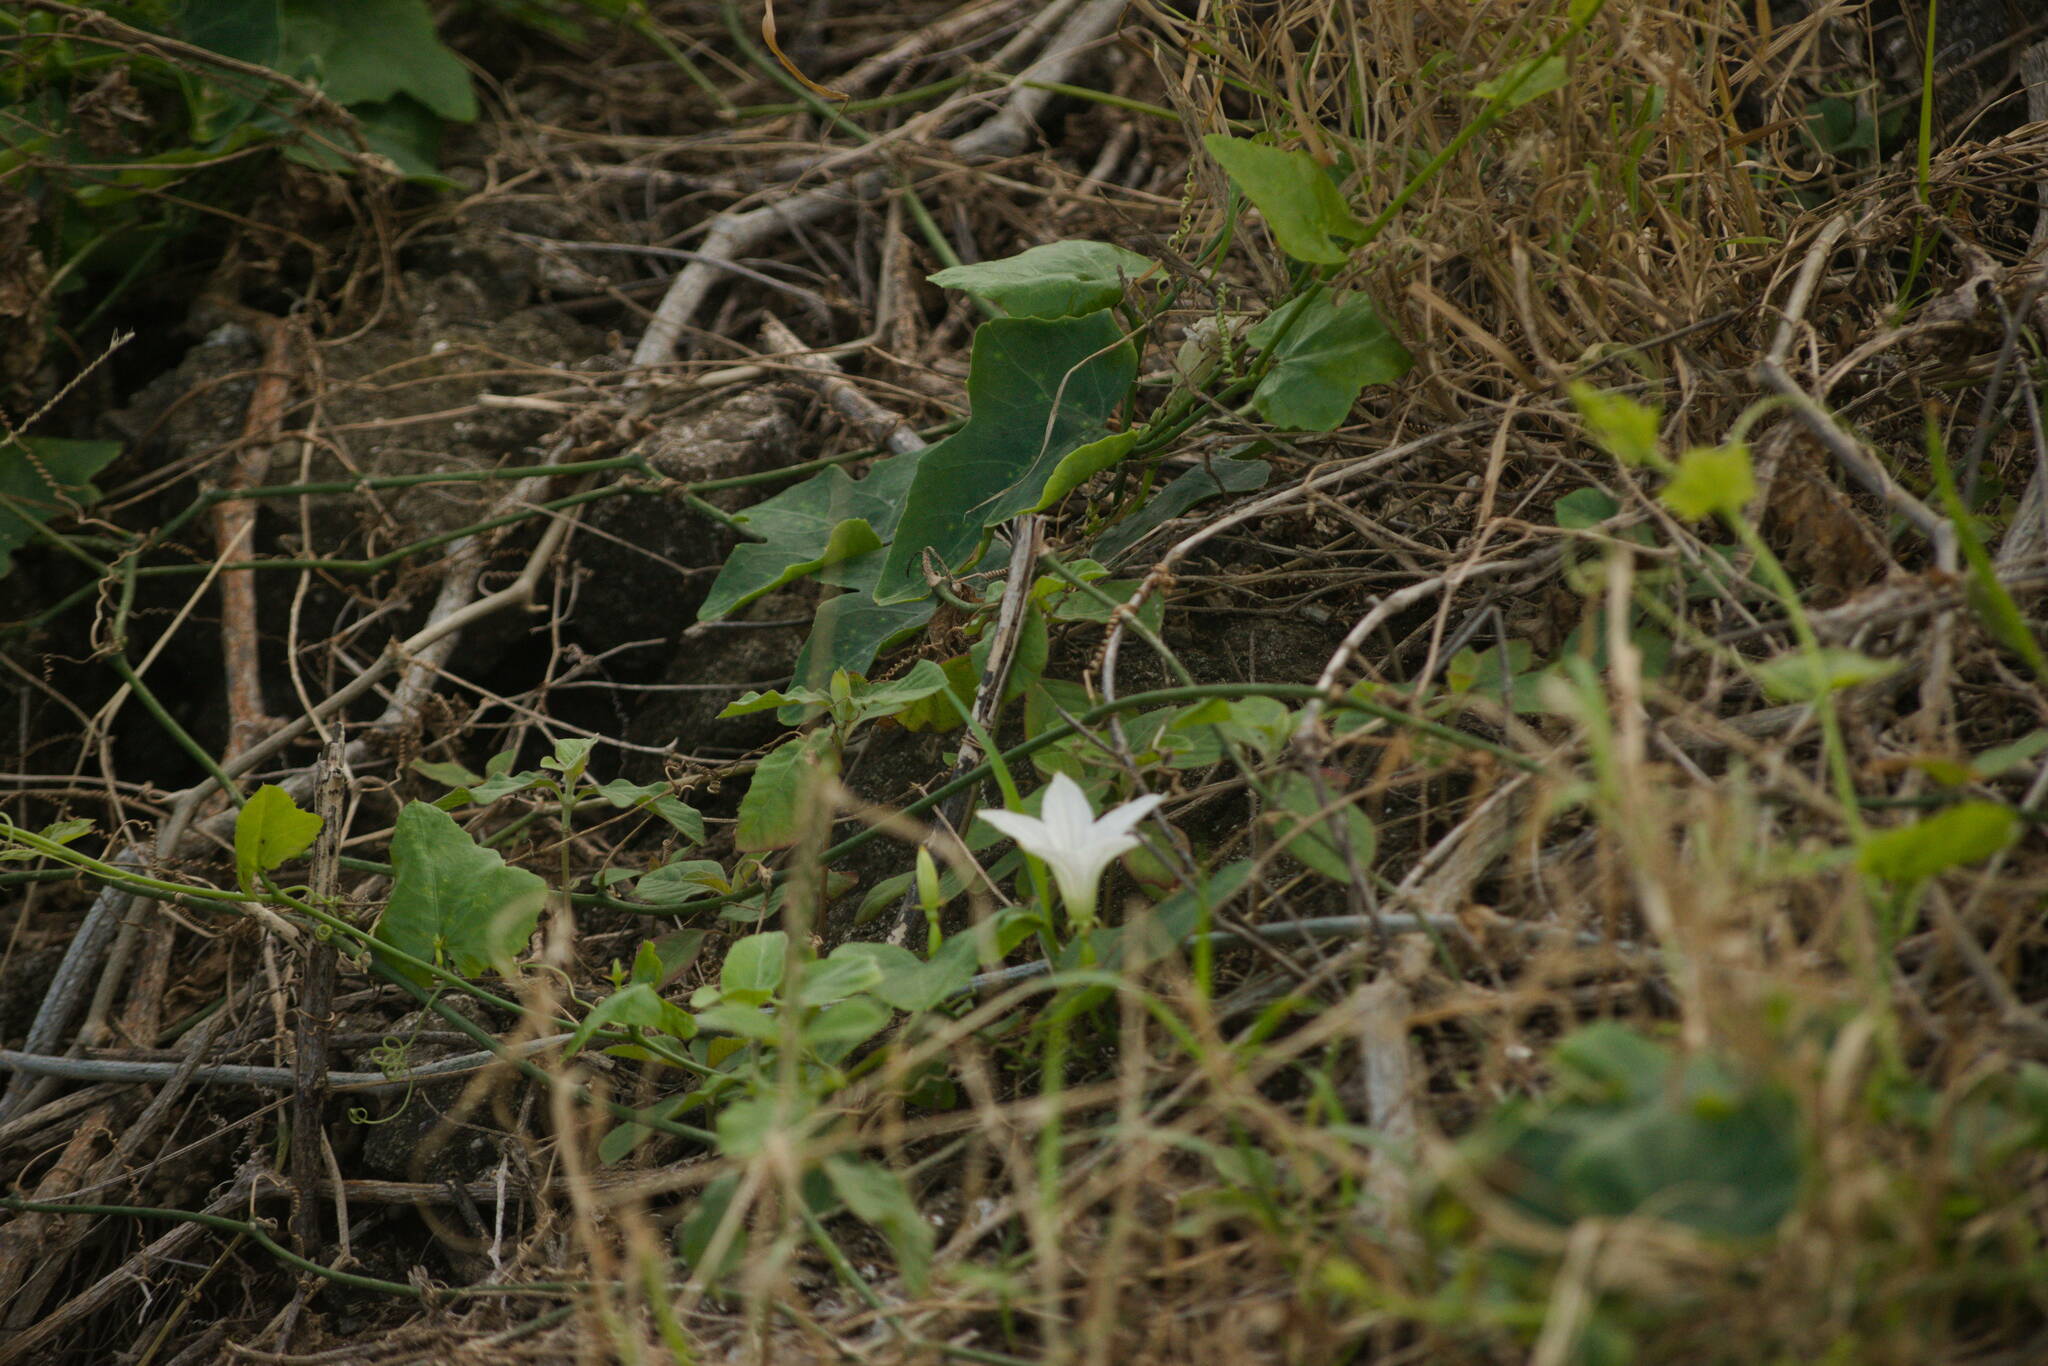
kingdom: Plantae
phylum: Tracheophyta
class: Magnoliopsida
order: Cucurbitales
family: Cucurbitaceae
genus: Coccinia
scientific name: Coccinia grandis
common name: Ivy gourd
